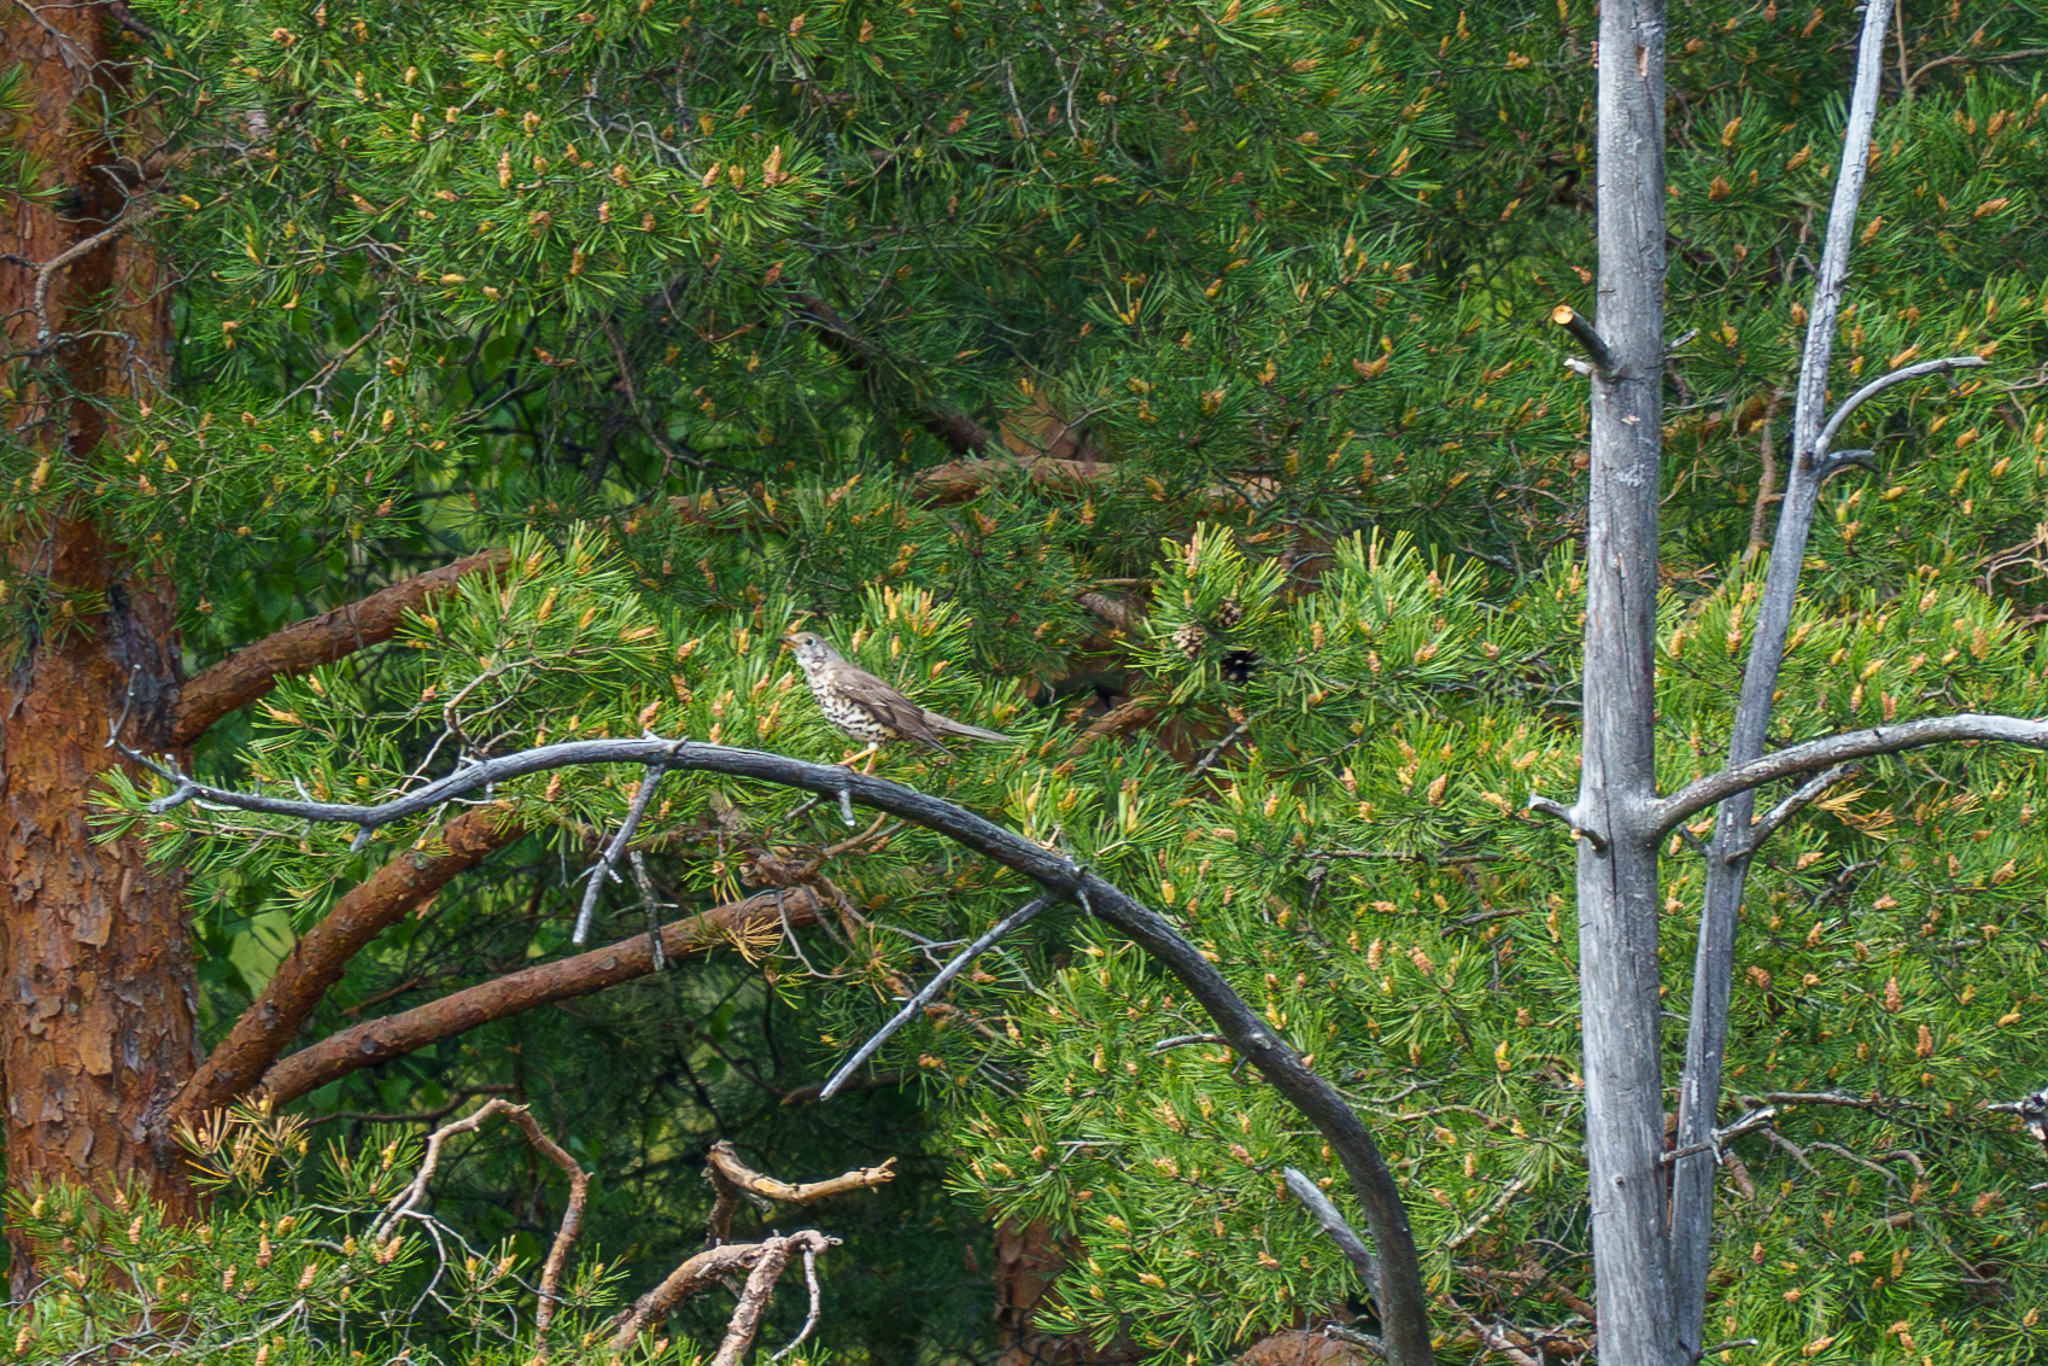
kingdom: Animalia
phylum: Chordata
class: Aves
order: Passeriformes
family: Turdidae
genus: Turdus
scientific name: Turdus viscivorus
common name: Mistle thrush
